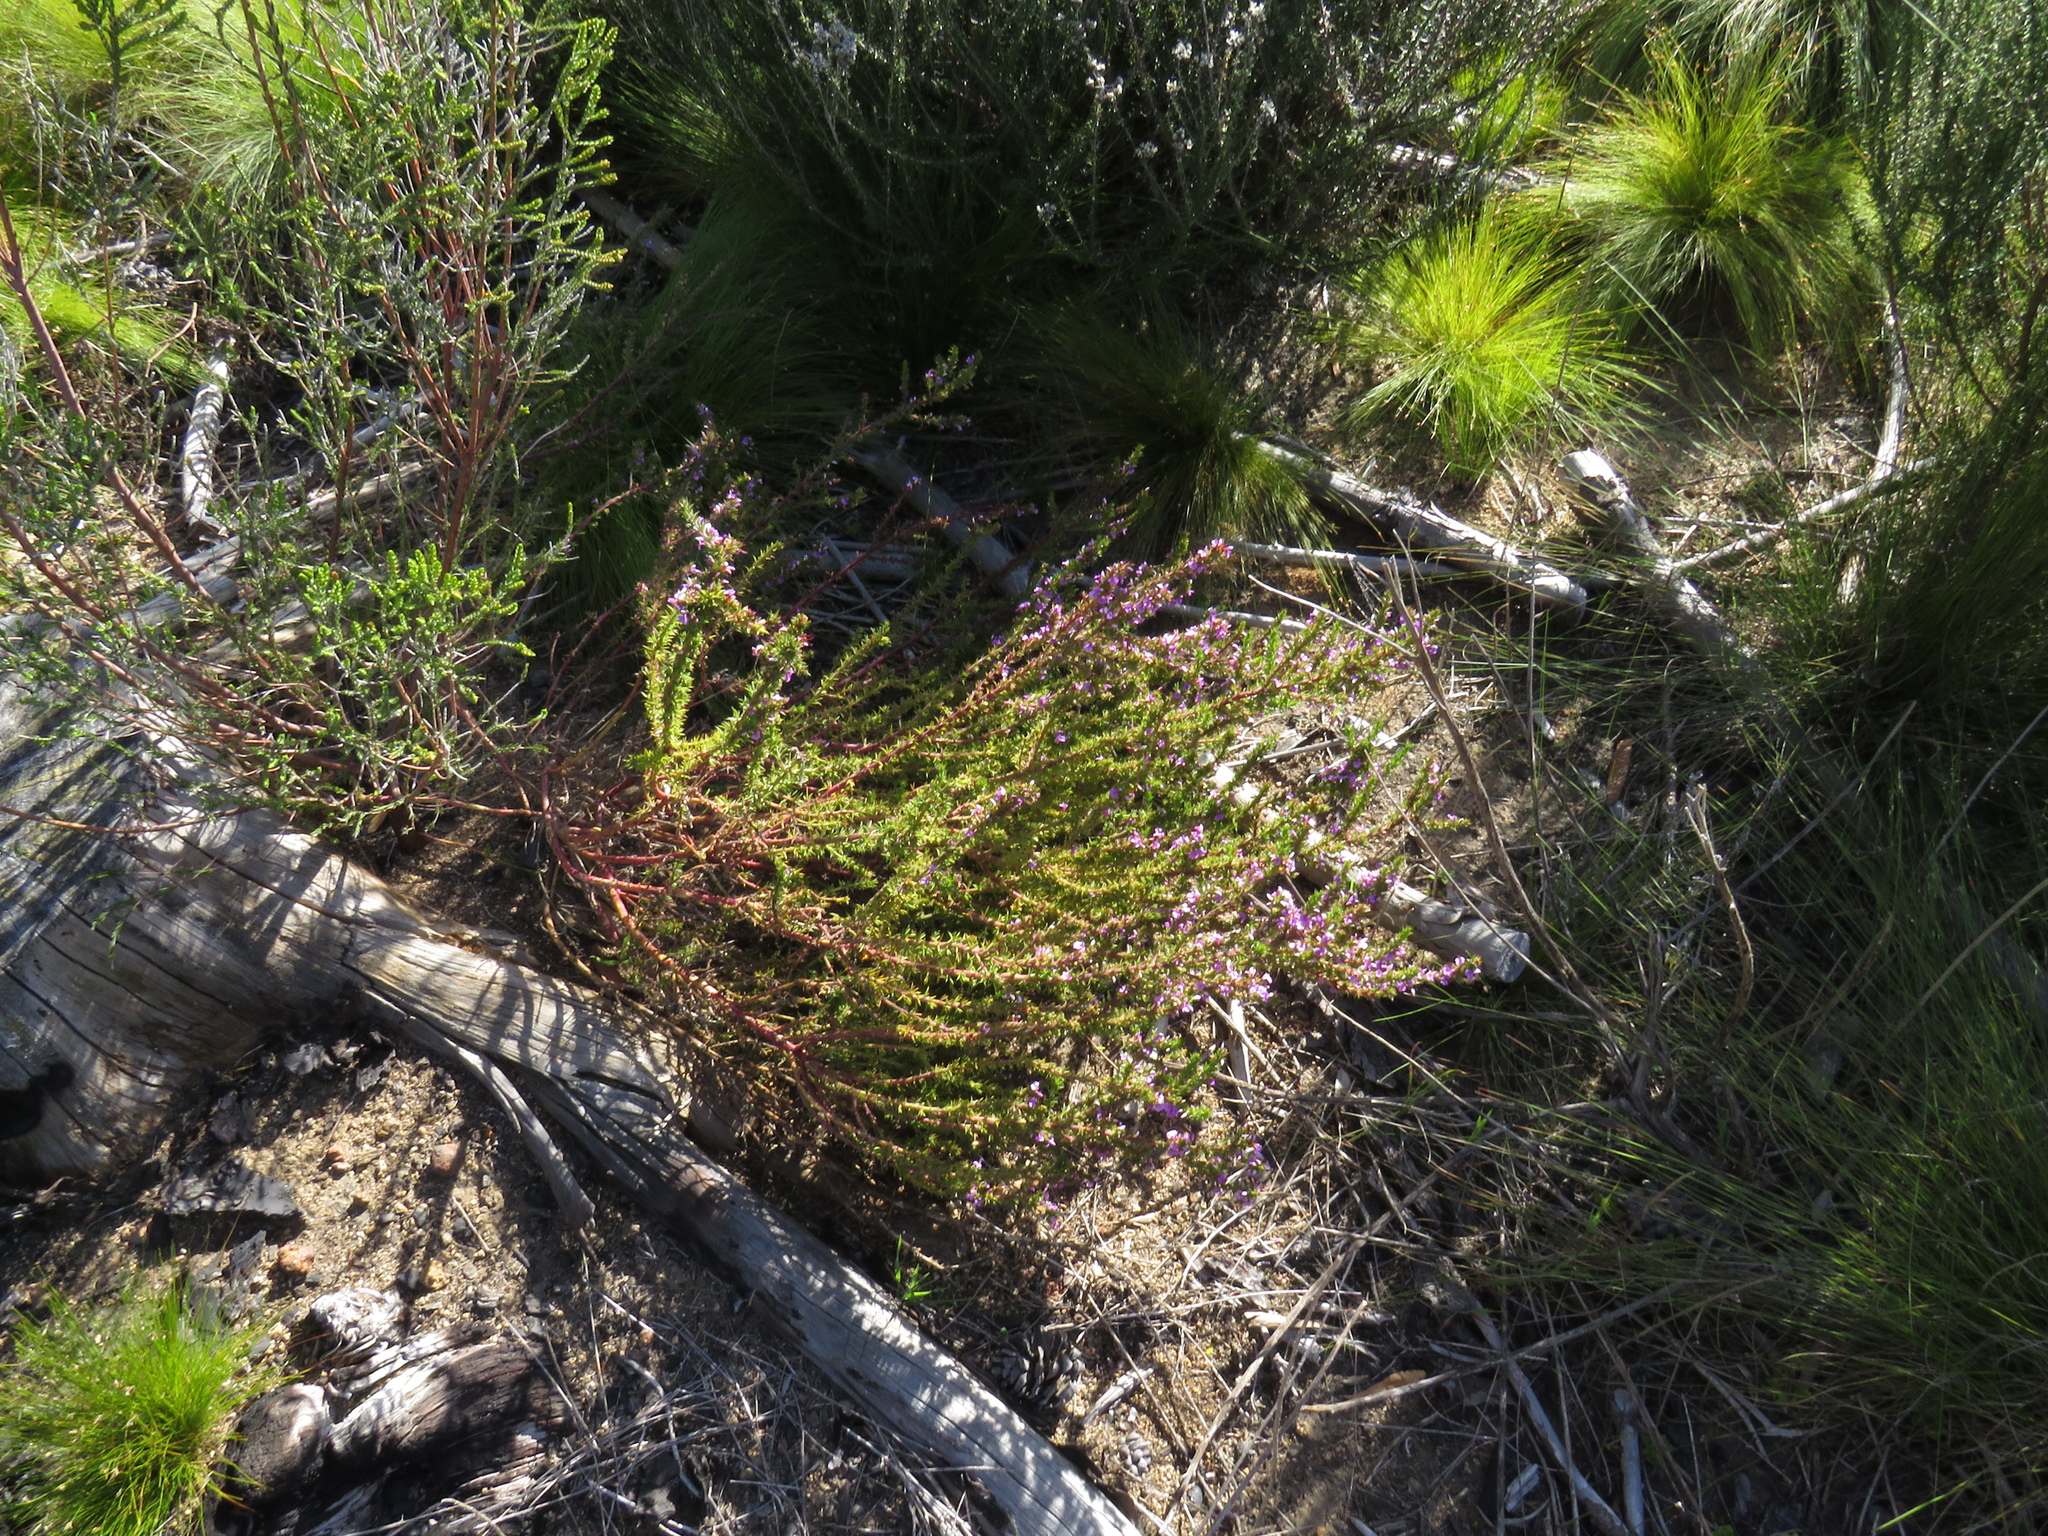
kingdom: Plantae
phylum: Tracheophyta
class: Magnoliopsida
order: Fabales
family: Polygalaceae
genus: Muraltia
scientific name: Muraltia heisteria
